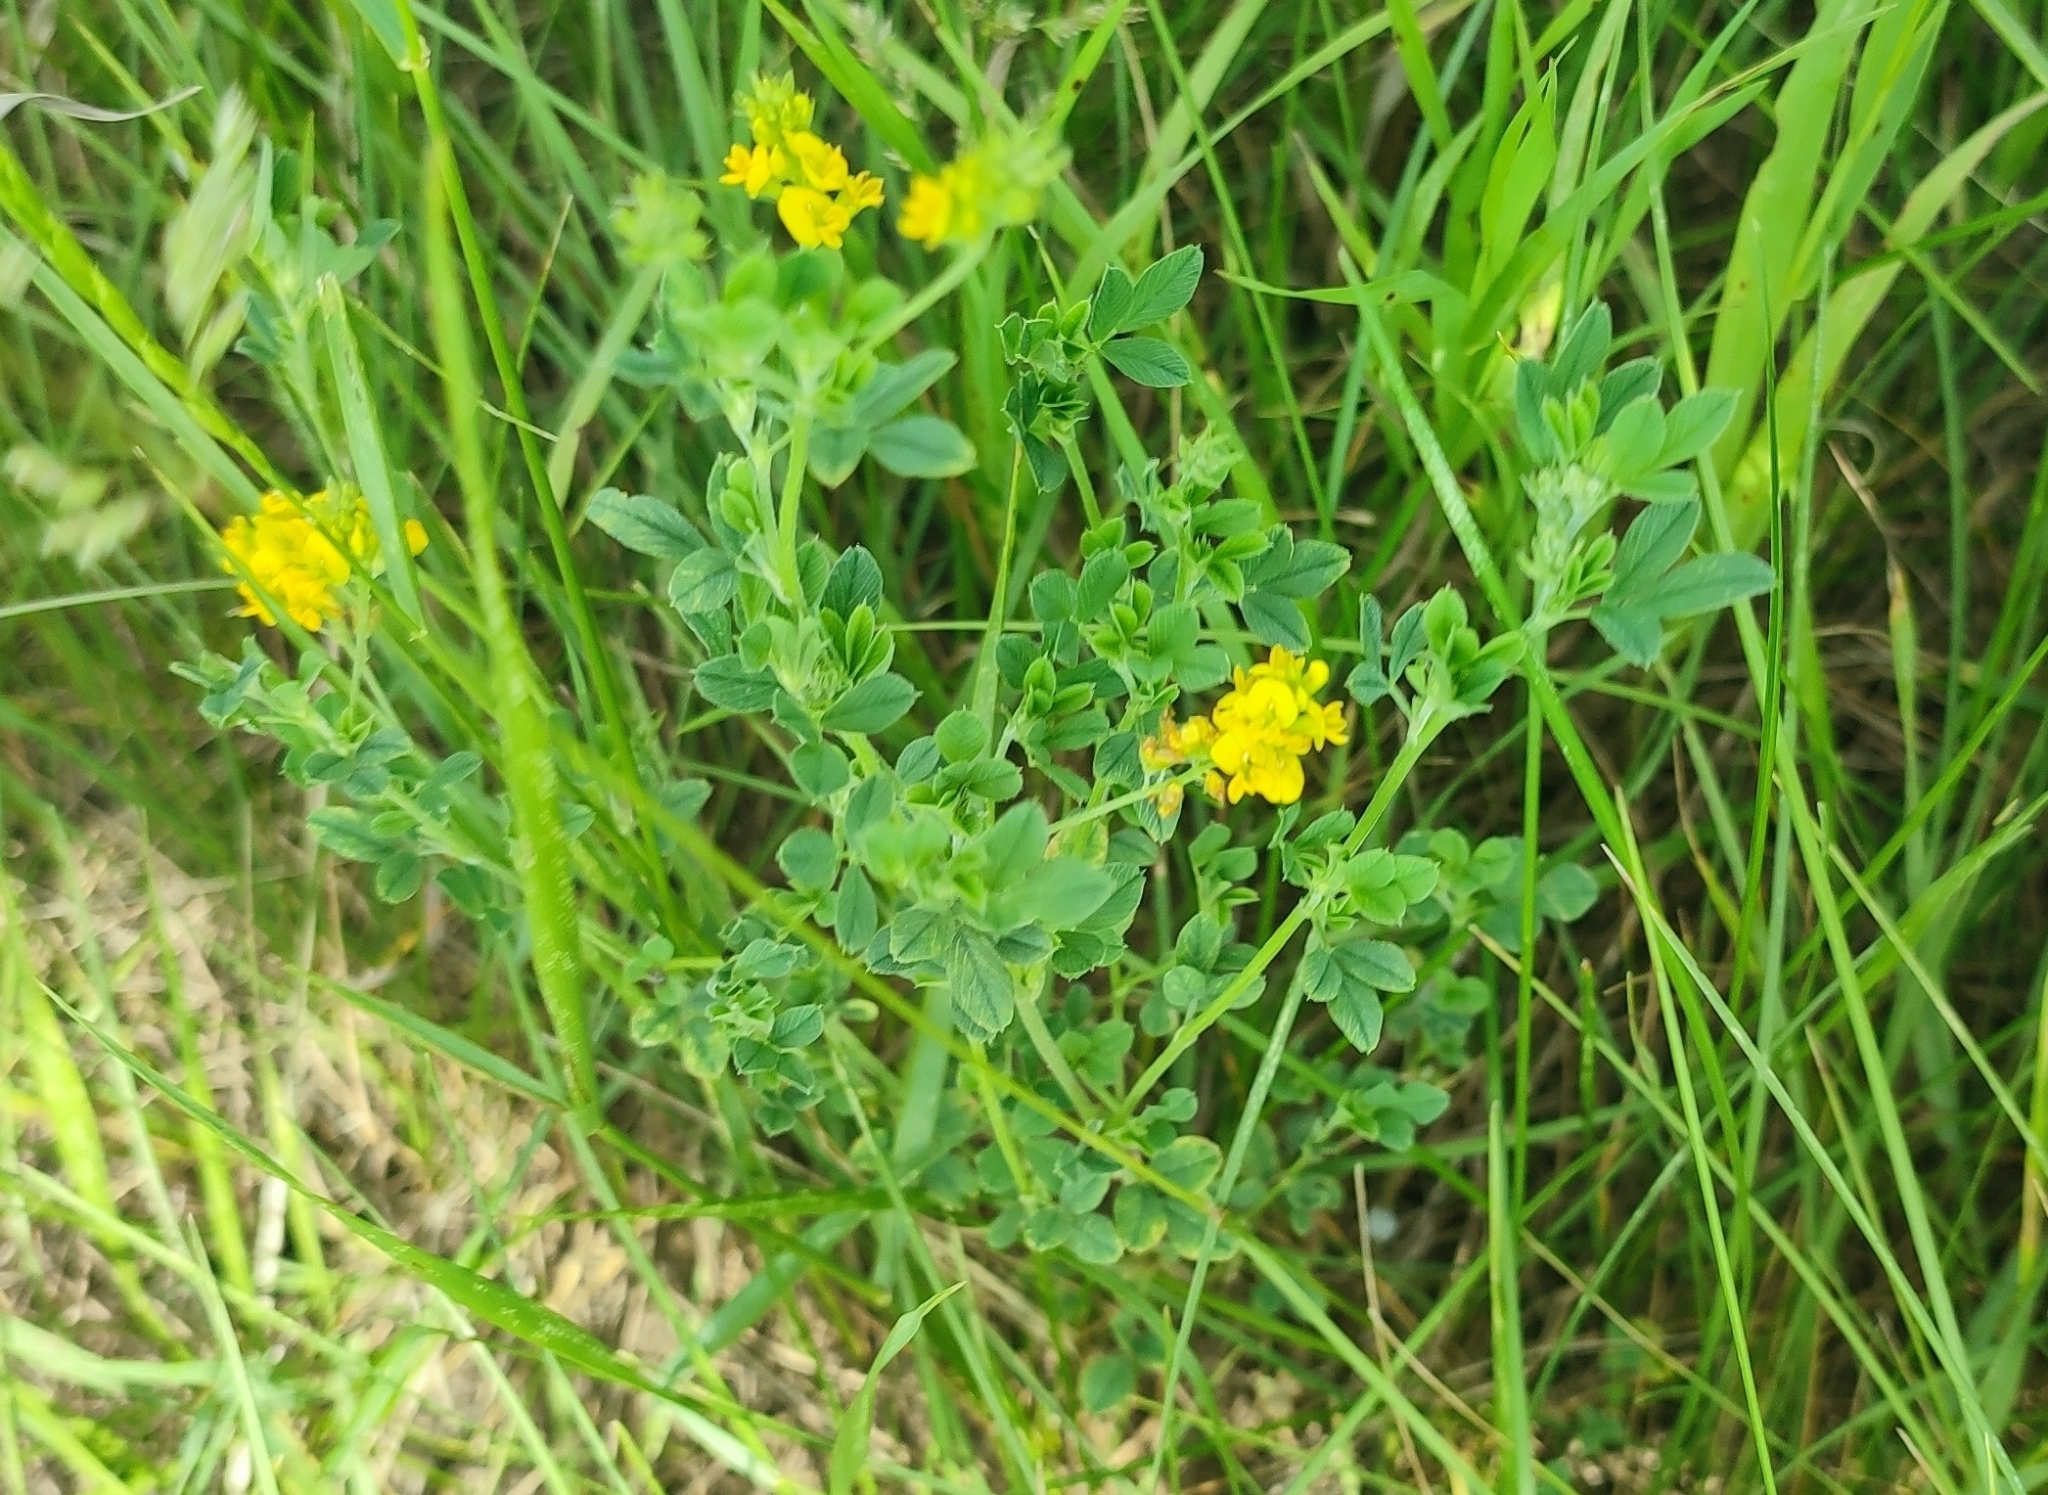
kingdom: Plantae
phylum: Tracheophyta
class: Magnoliopsida
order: Fabales
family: Fabaceae
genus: Medicago
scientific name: Medicago falcata
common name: Sickle medick
